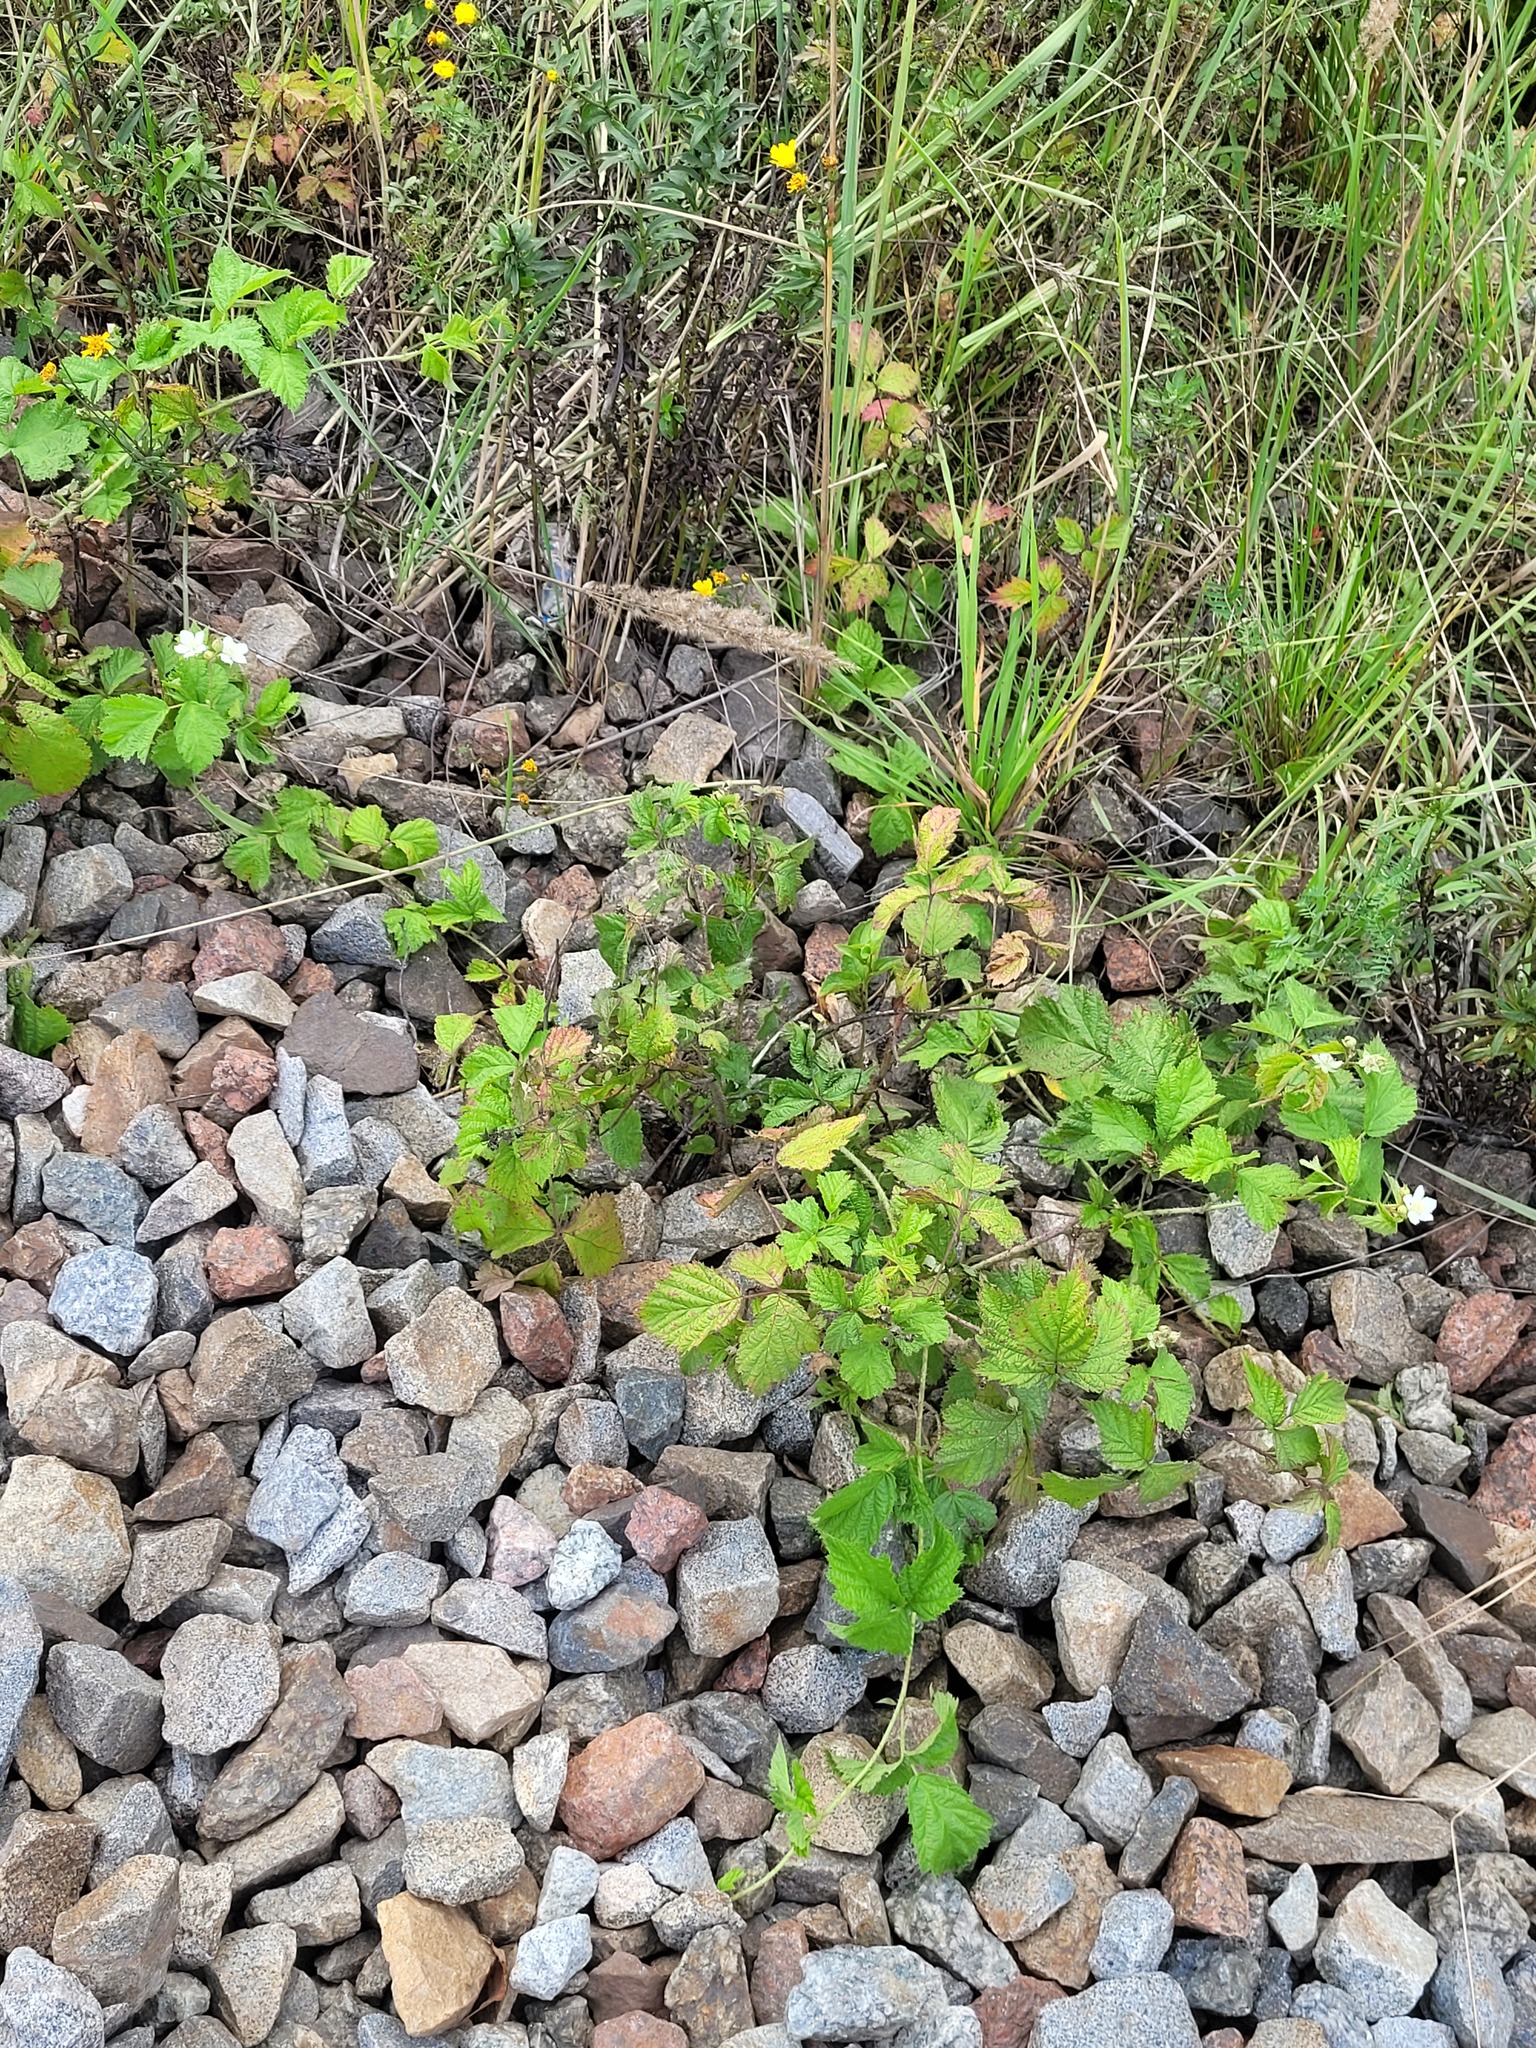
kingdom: Plantae
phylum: Tracheophyta
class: Magnoliopsida
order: Rosales
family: Rosaceae
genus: Rubus
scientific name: Rubus caesius
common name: Dewberry
